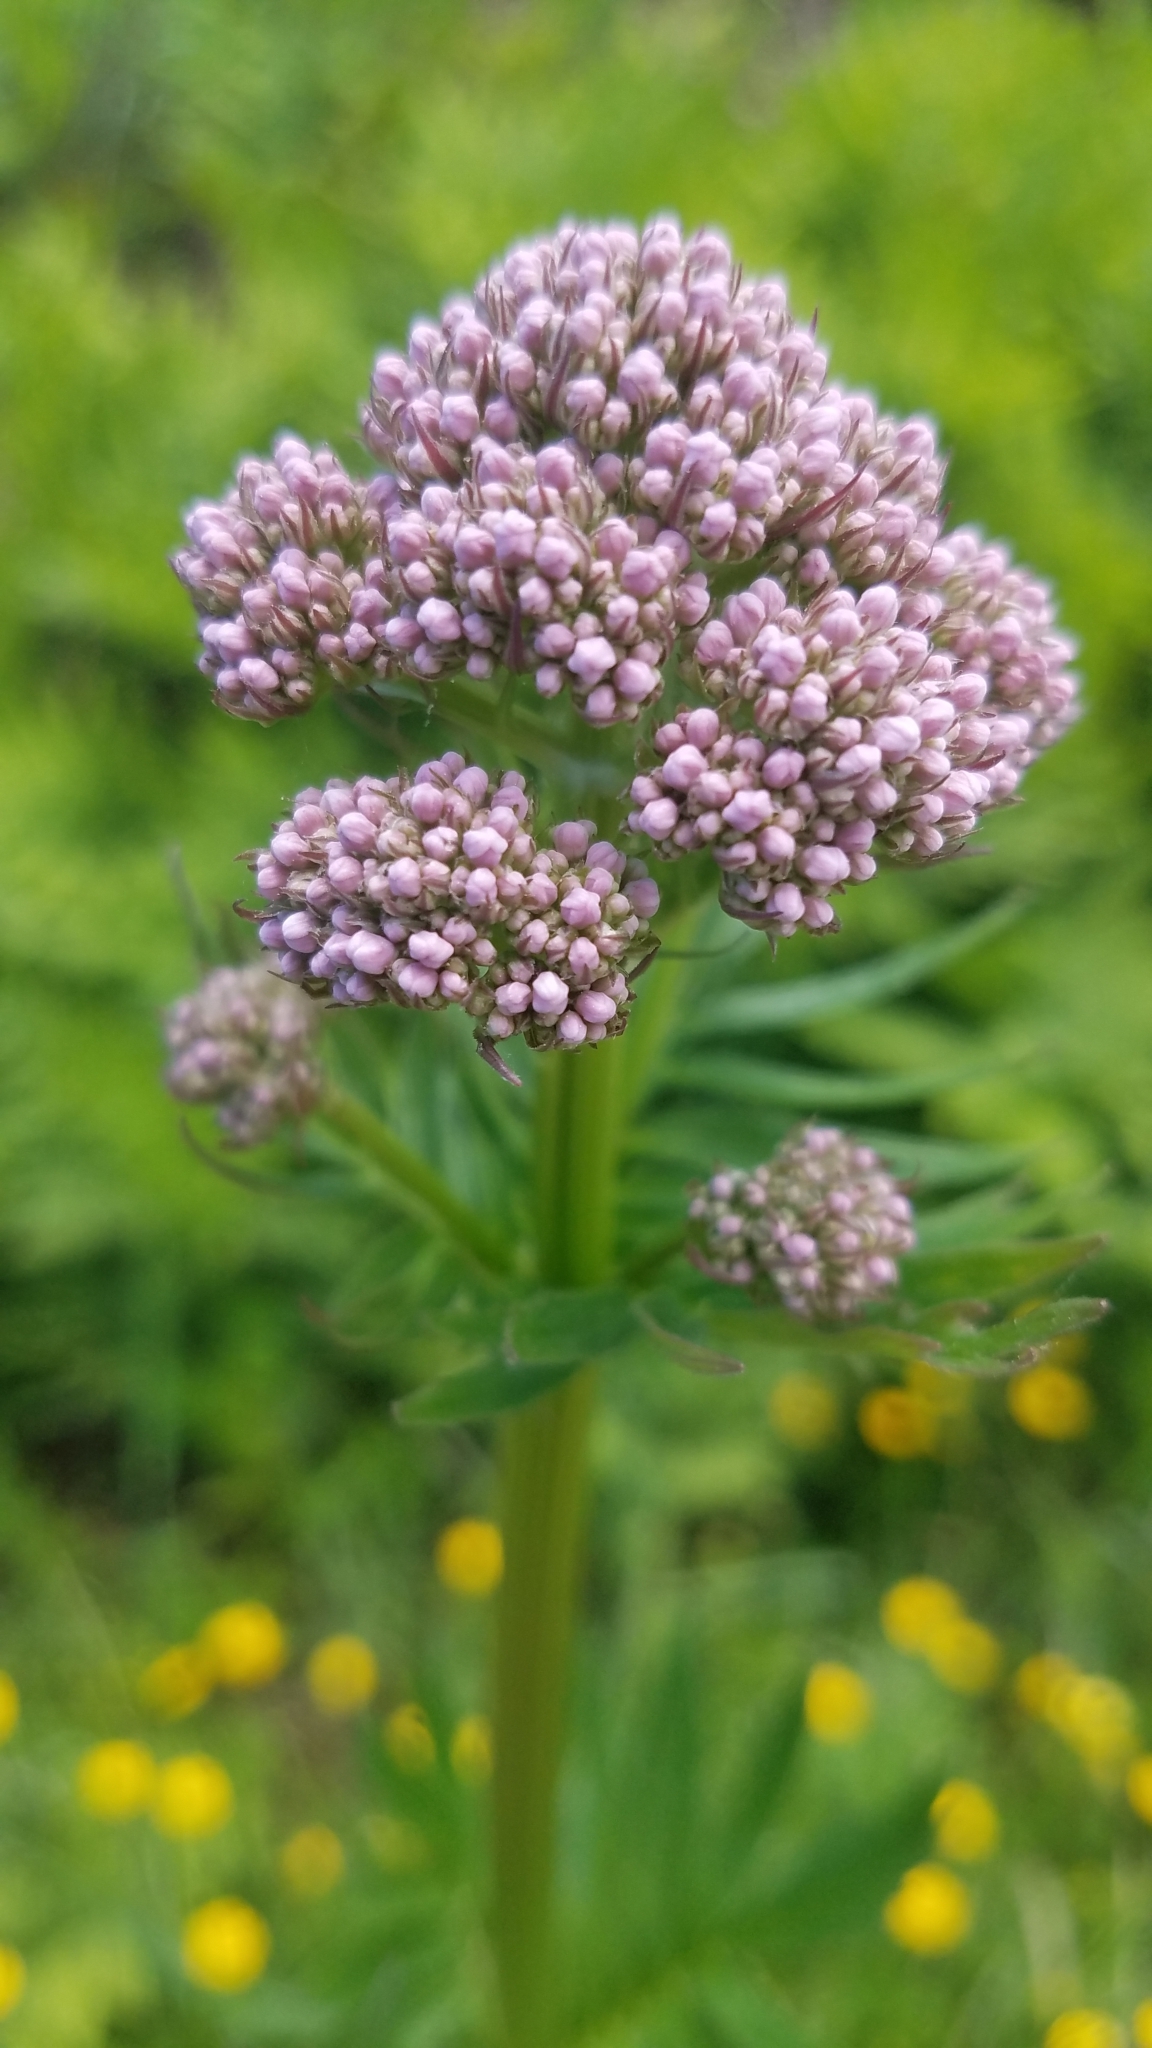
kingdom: Plantae
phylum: Tracheophyta
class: Magnoliopsida
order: Dipsacales
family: Caprifoliaceae
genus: Valeriana
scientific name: Valeriana officinalis
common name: Common valerian
